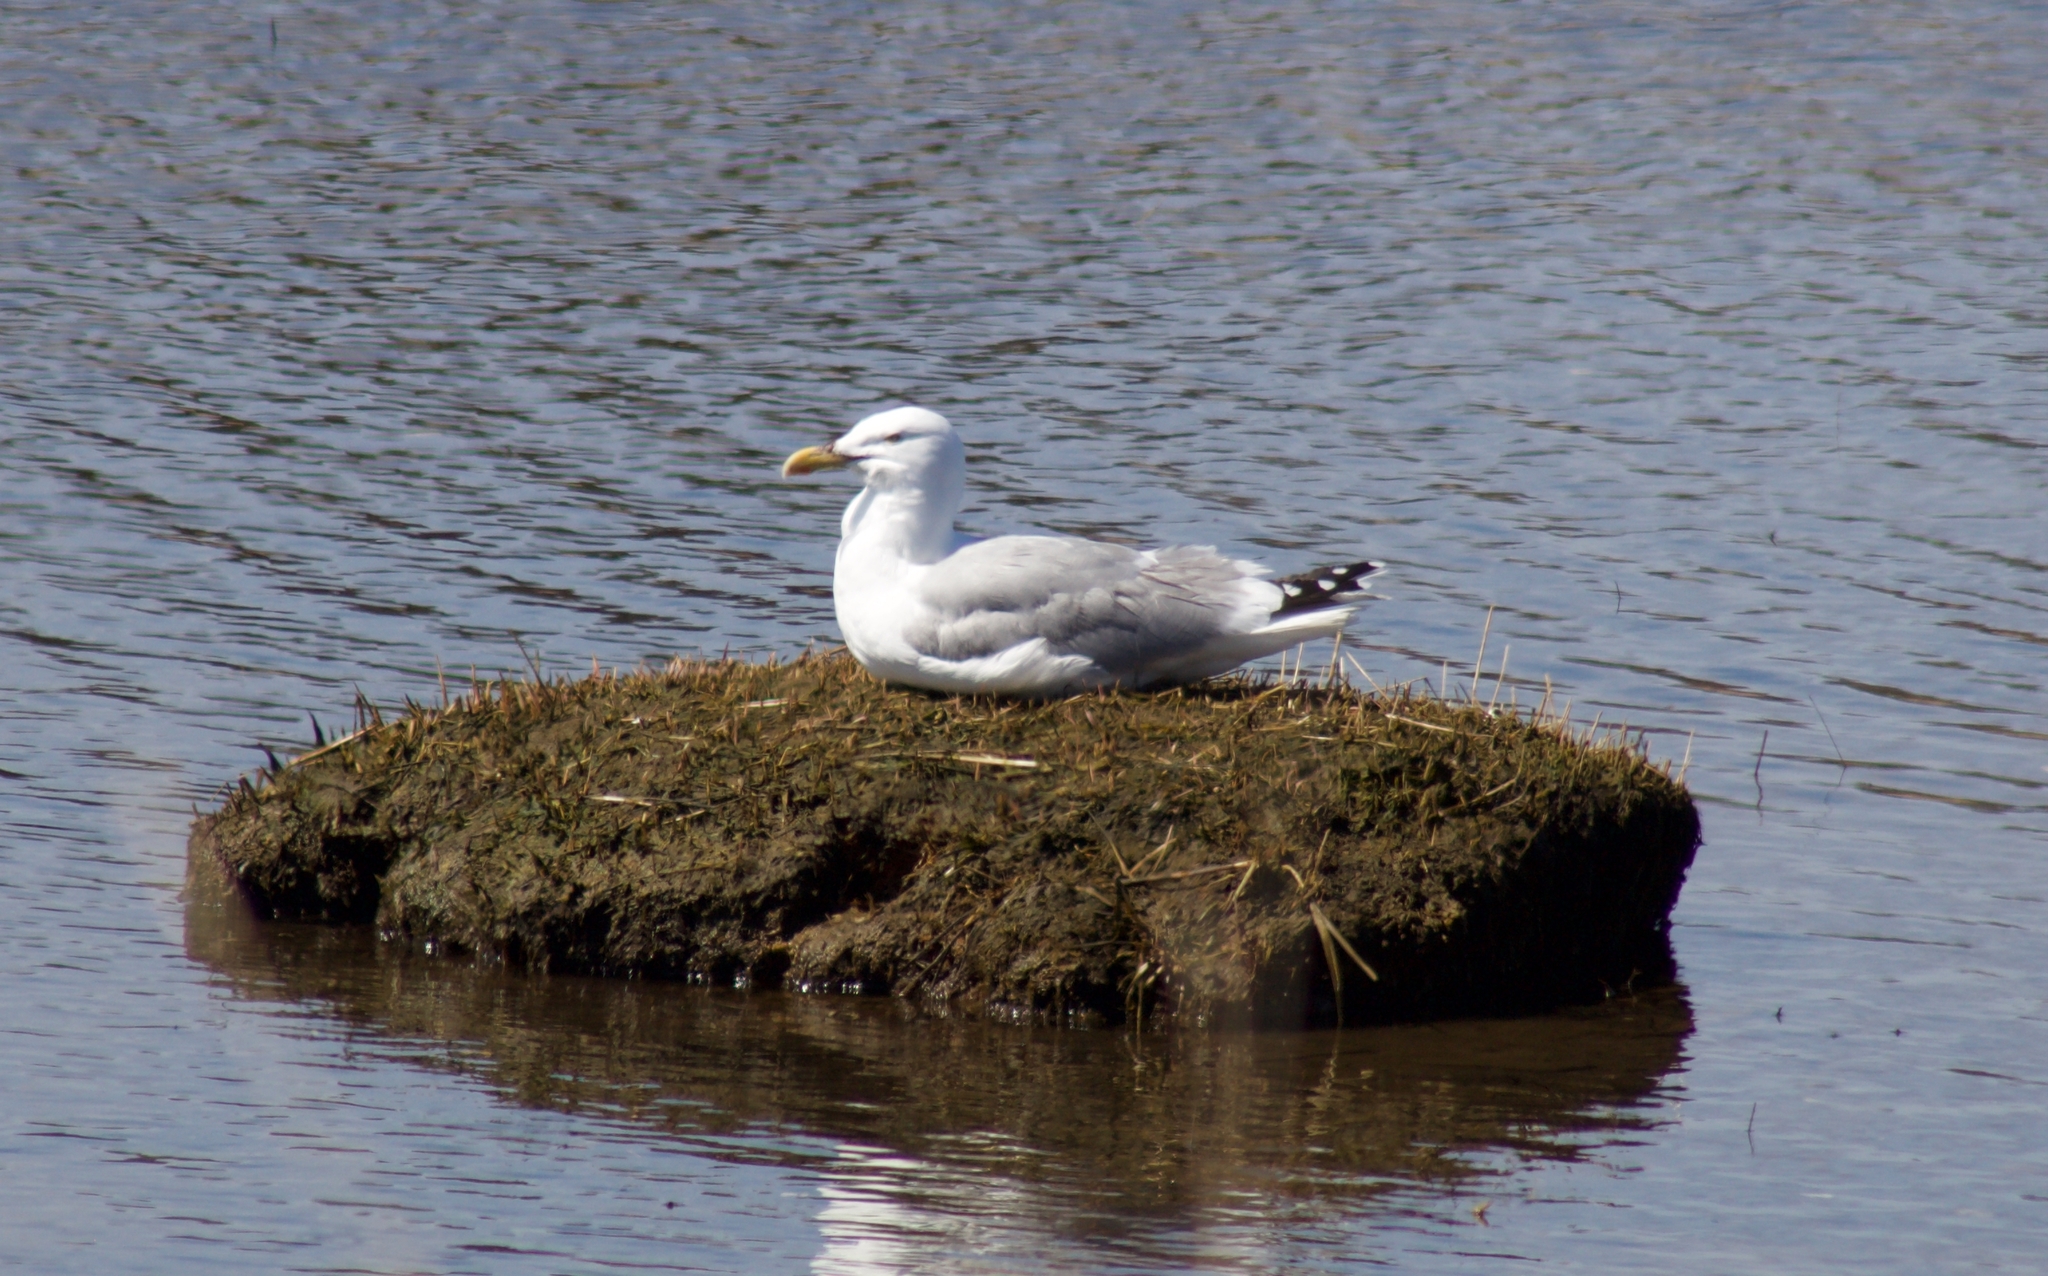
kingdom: Animalia
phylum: Chordata
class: Aves
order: Charadriiformes
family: Laridae
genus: Larus
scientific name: Larus argentatus
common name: Herring gull
